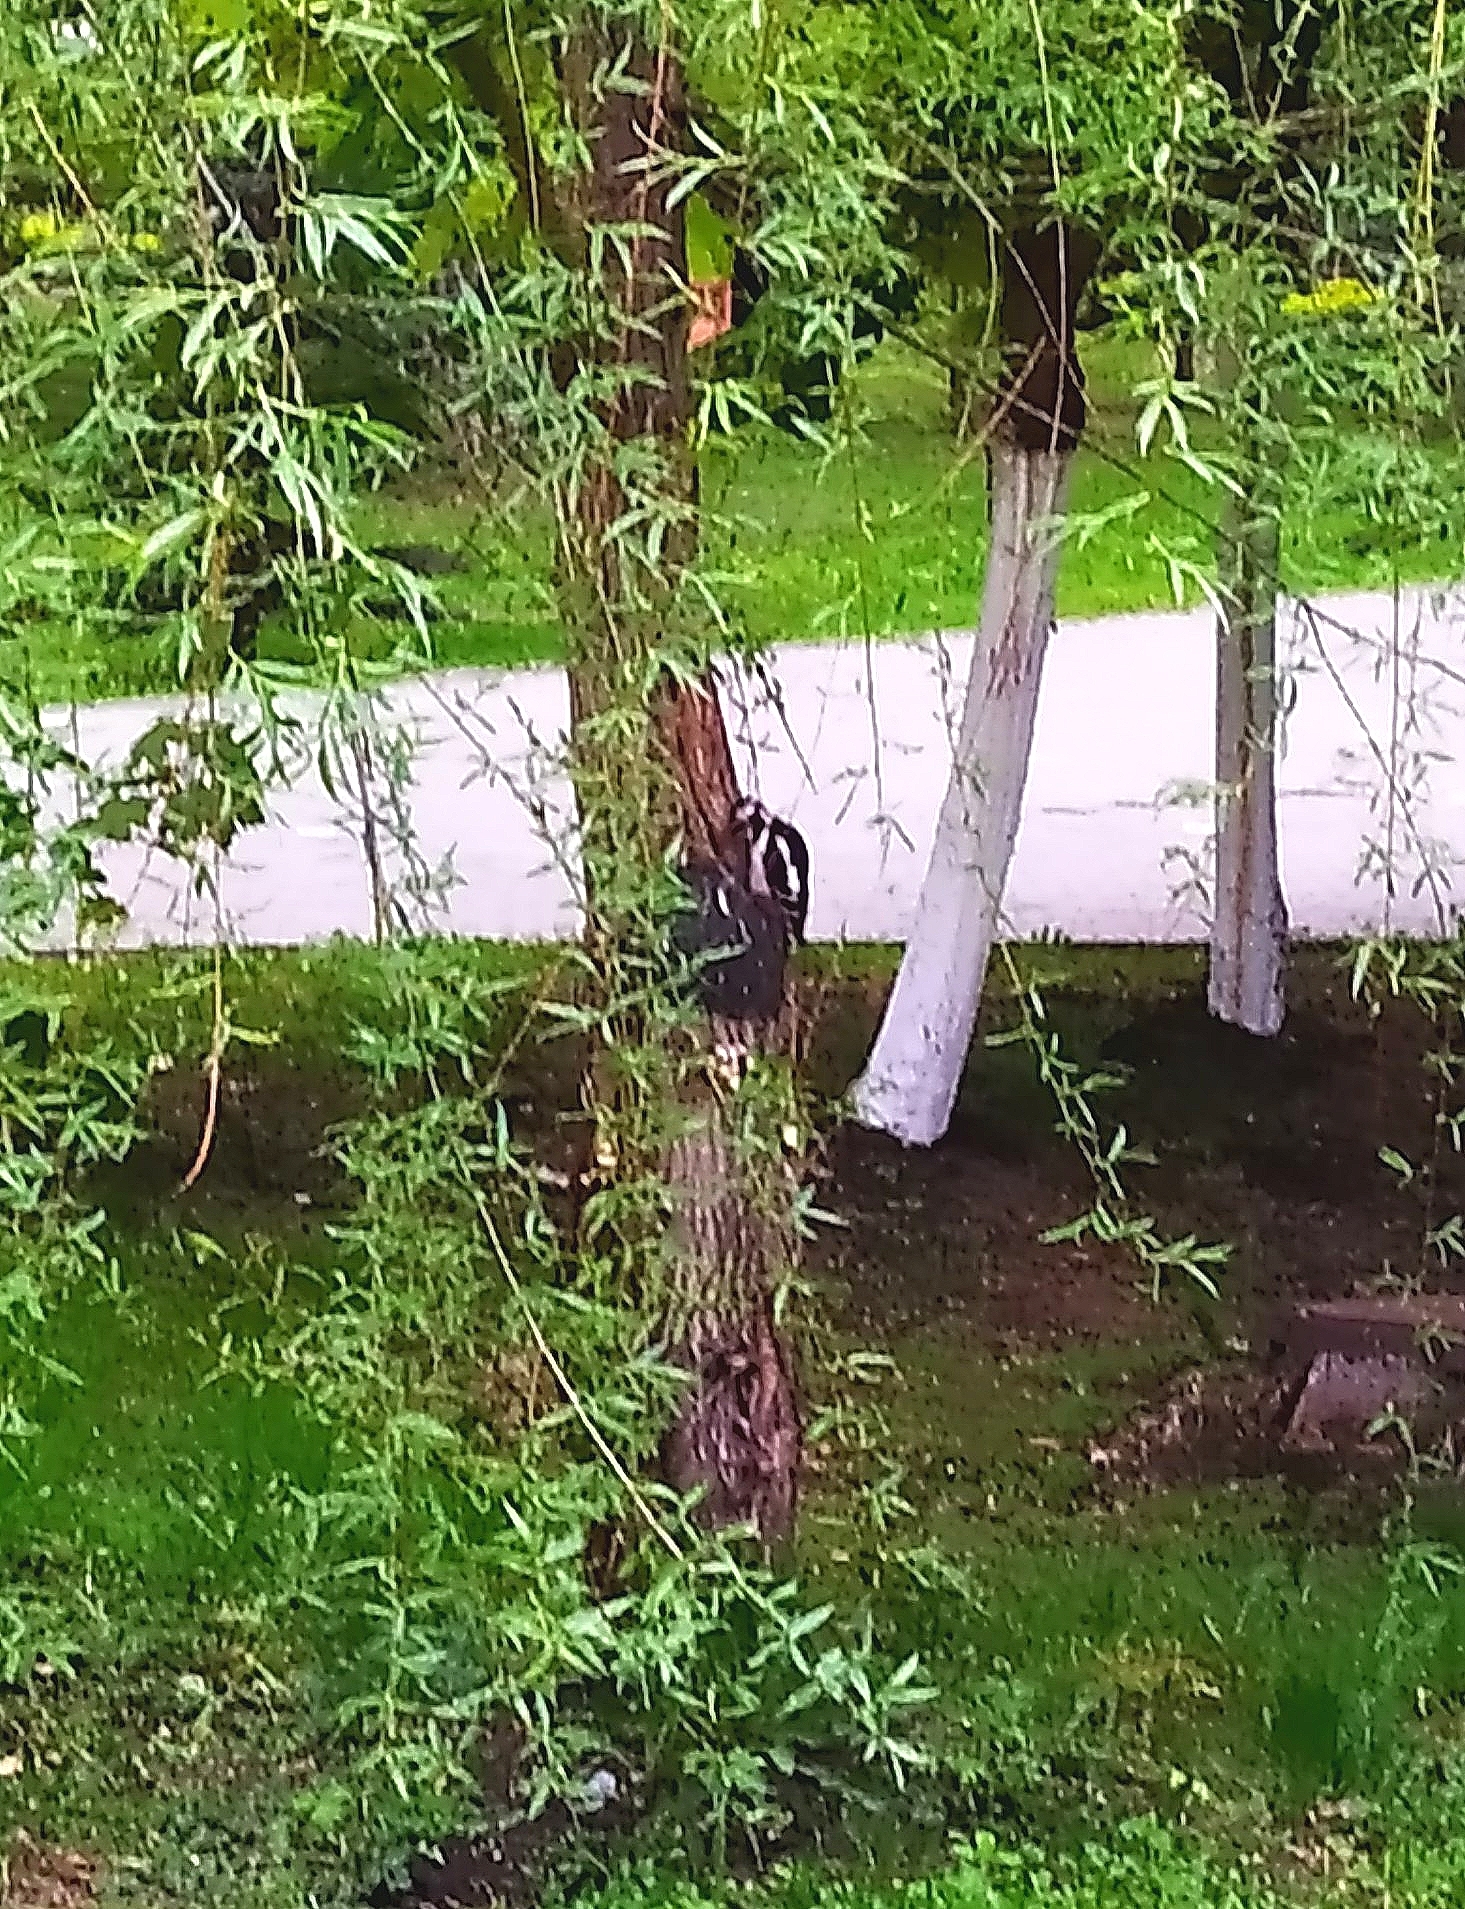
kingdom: Animalia
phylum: Chordata
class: Aves
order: Piciformes
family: Picidae
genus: Dendrocopos
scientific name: Dendrocopos major
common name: Great spotted woodpecker
